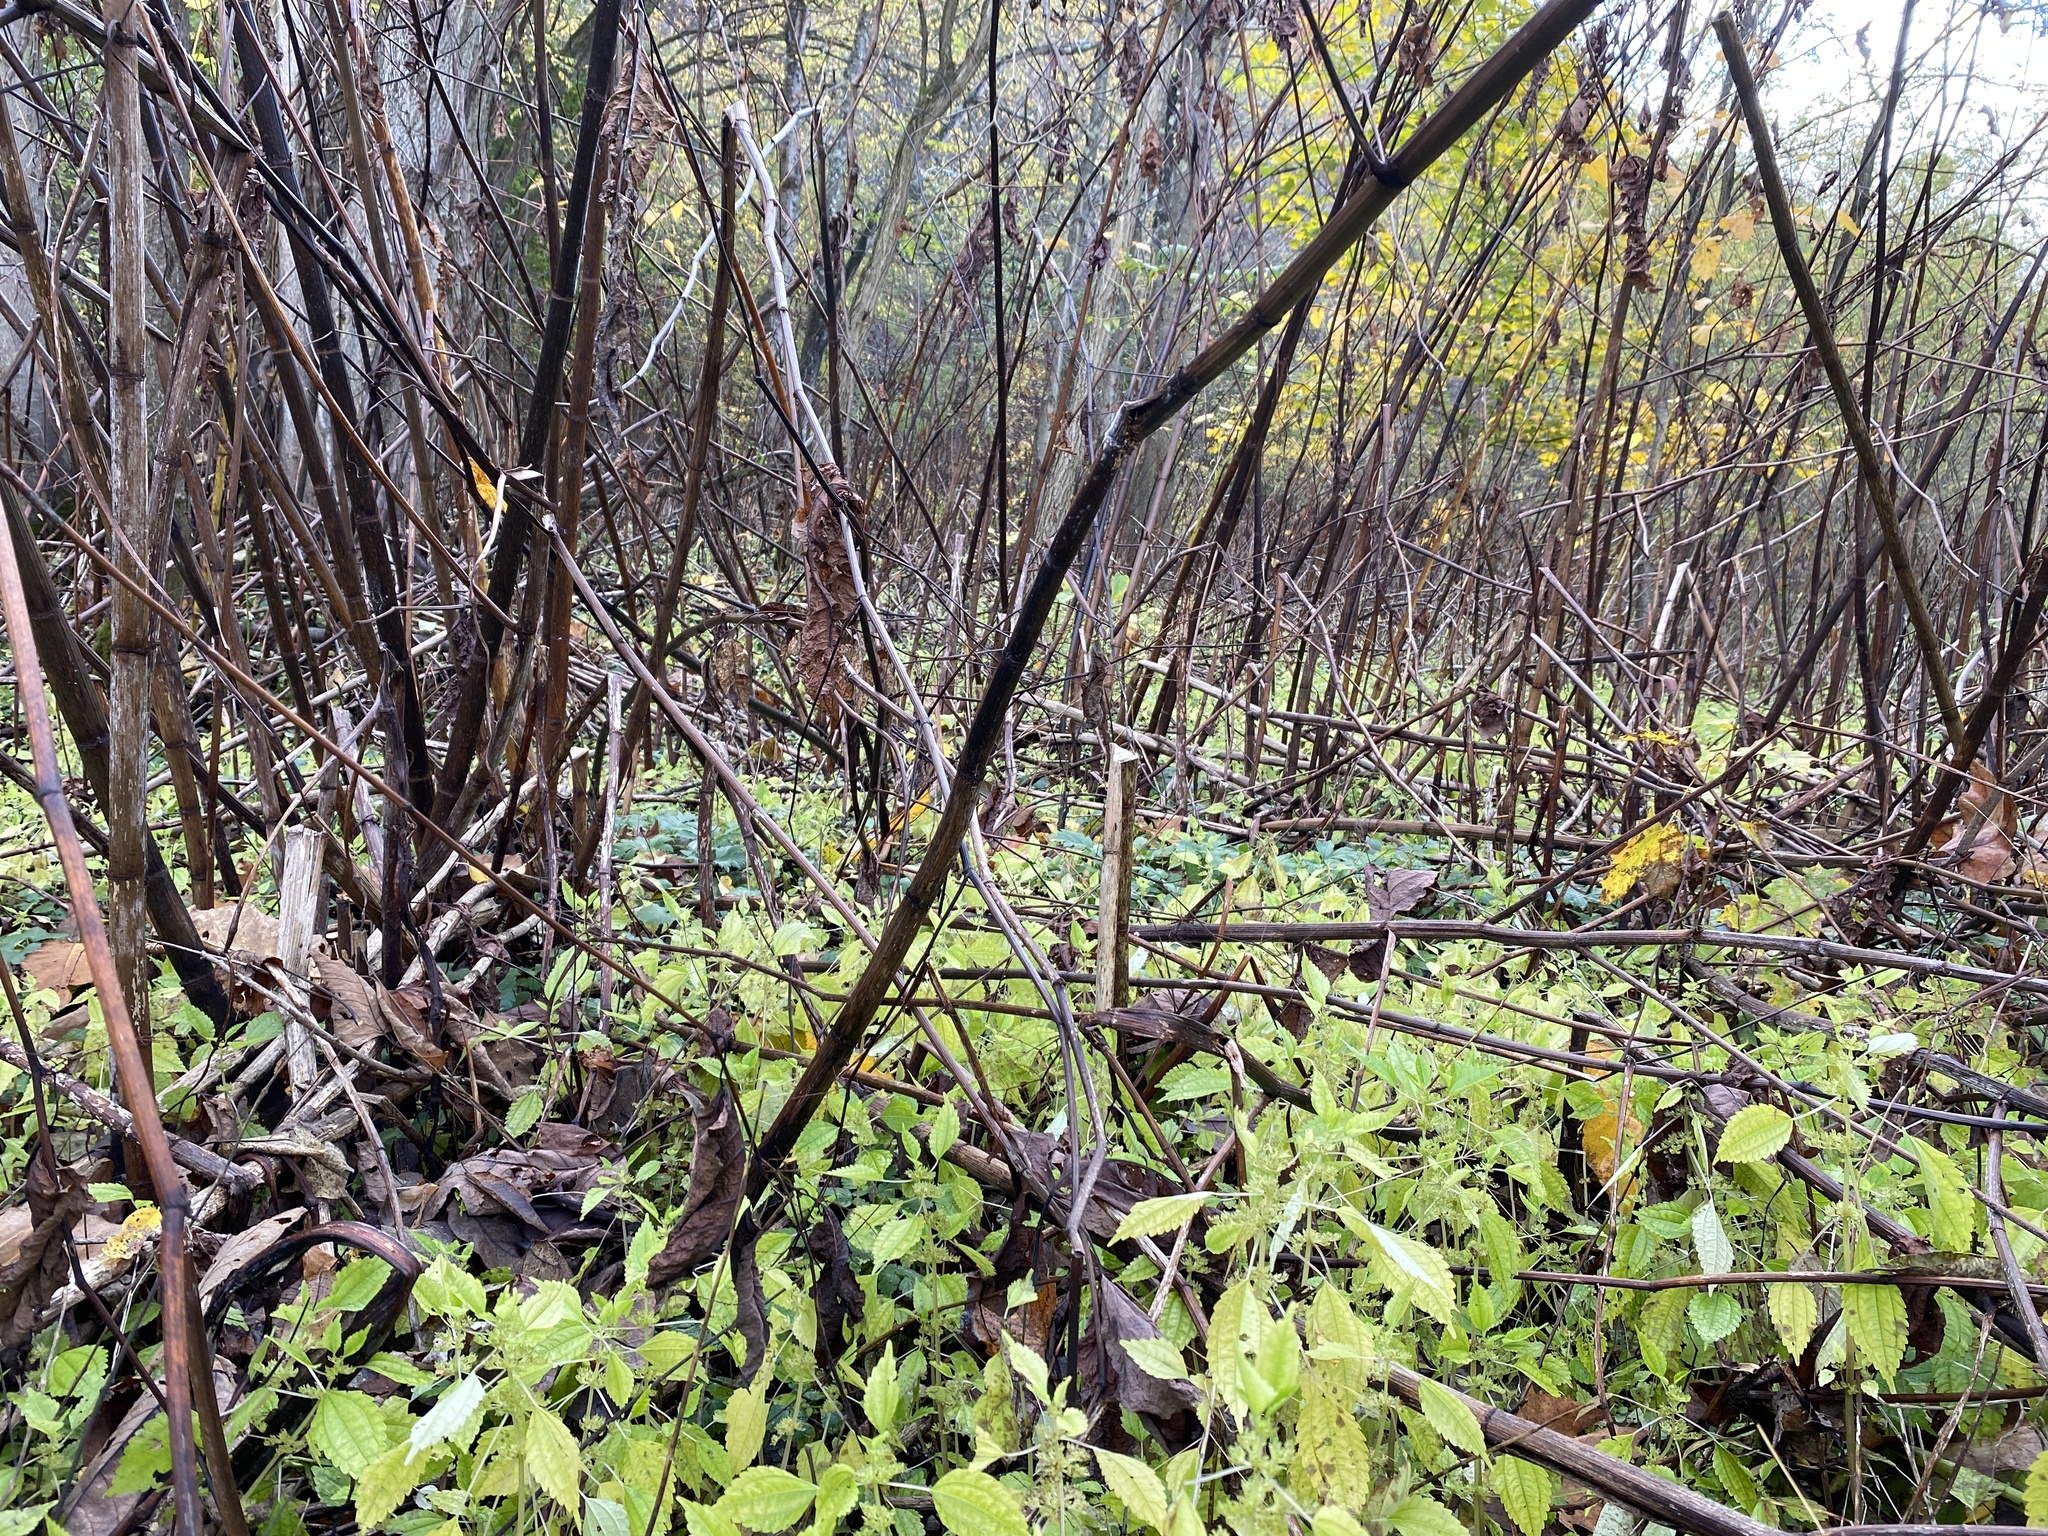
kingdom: Plantae
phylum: Tracheophyta
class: Magnoliopsida
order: Rosales
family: Urticaceae
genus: Pilea
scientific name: Pilea pumila
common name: Clearweed
